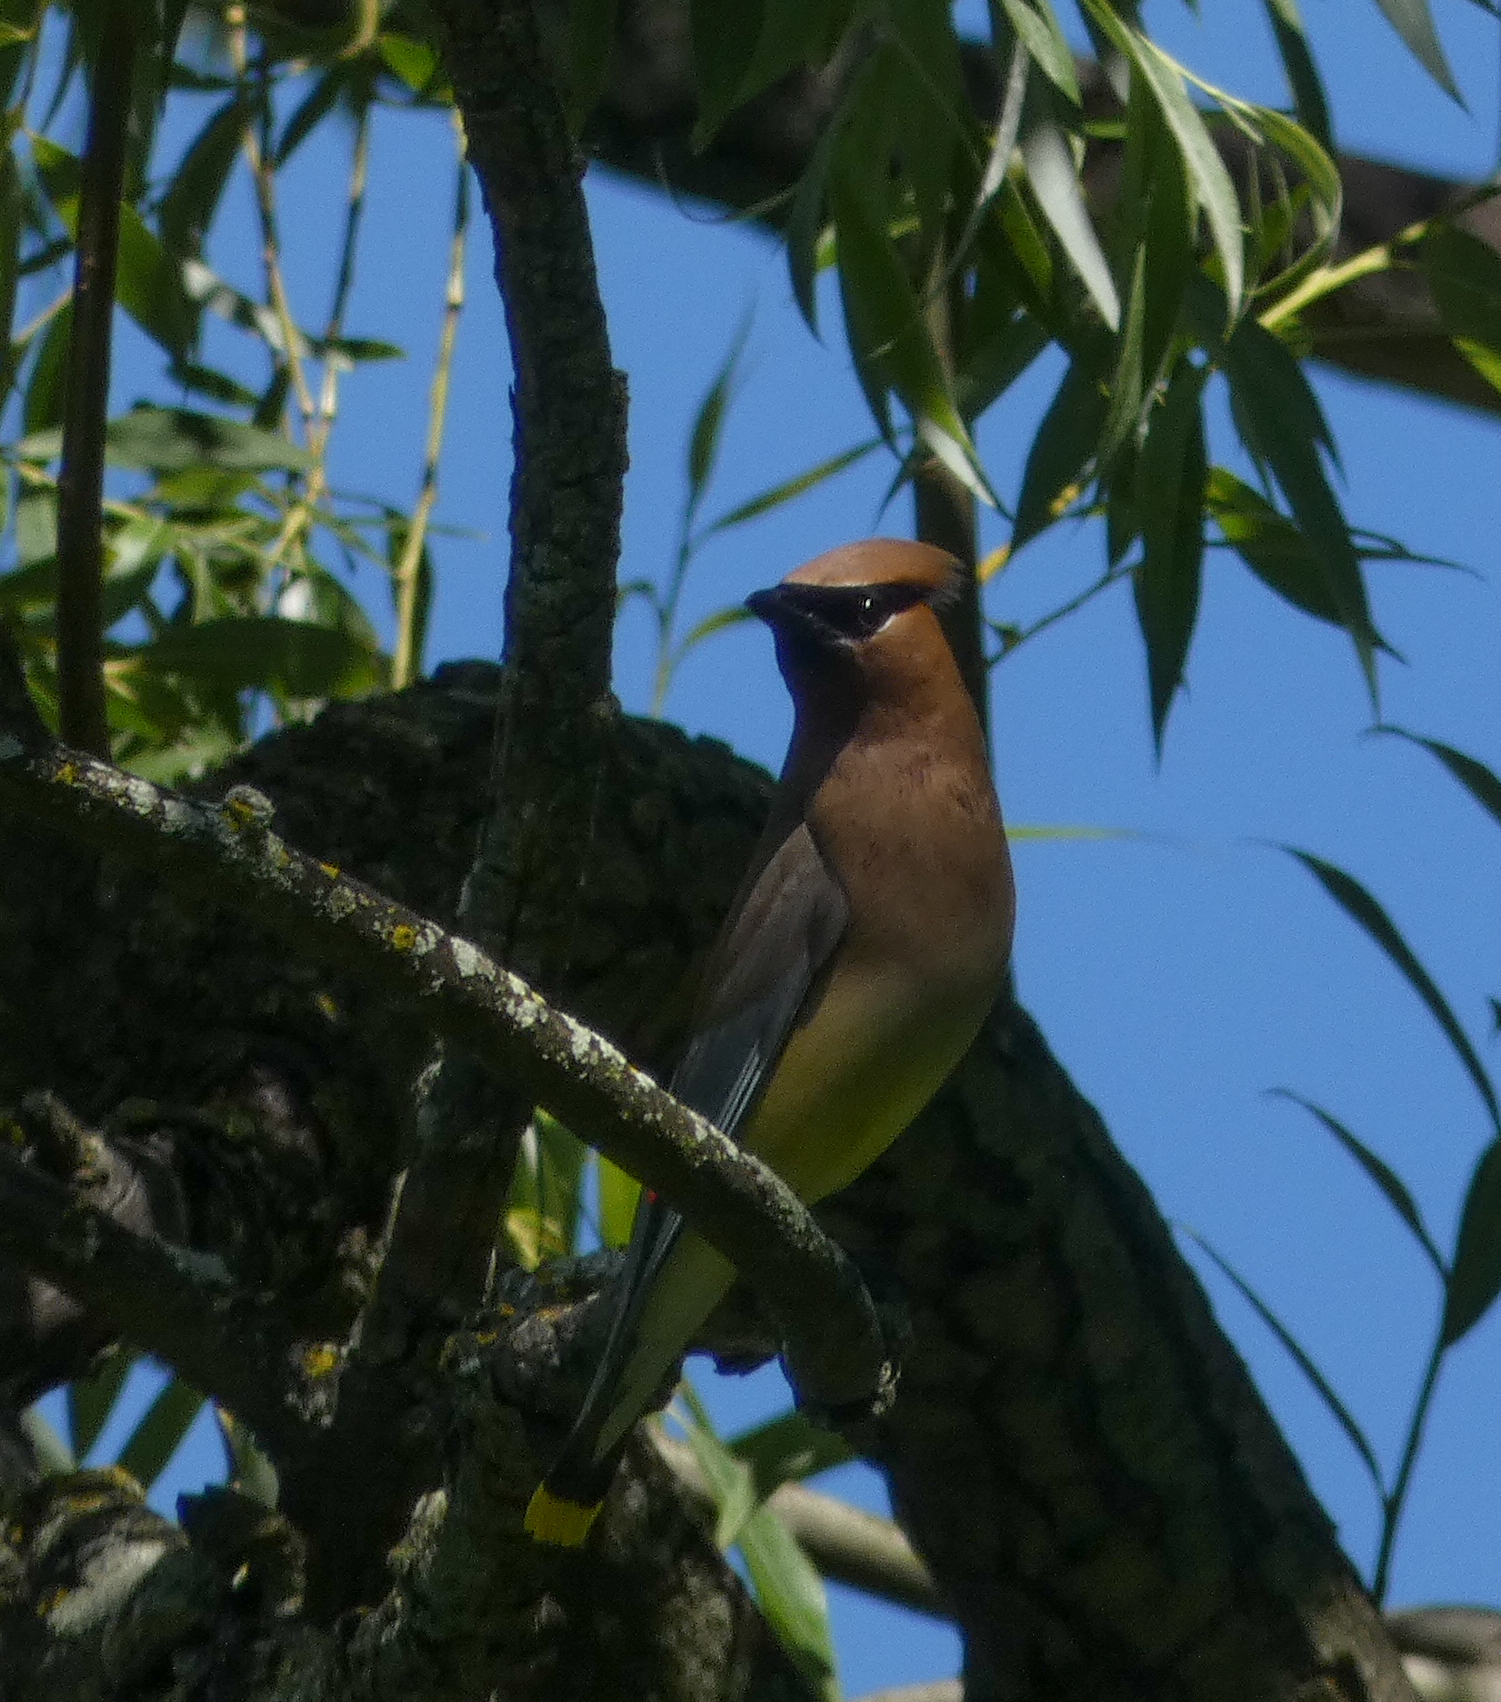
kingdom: Animalia
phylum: Chordata
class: Aves
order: Passeriformes
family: Bombycillidae
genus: Bombycilla
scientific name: Bombycilla cedrorum
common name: Cedar waxwing
